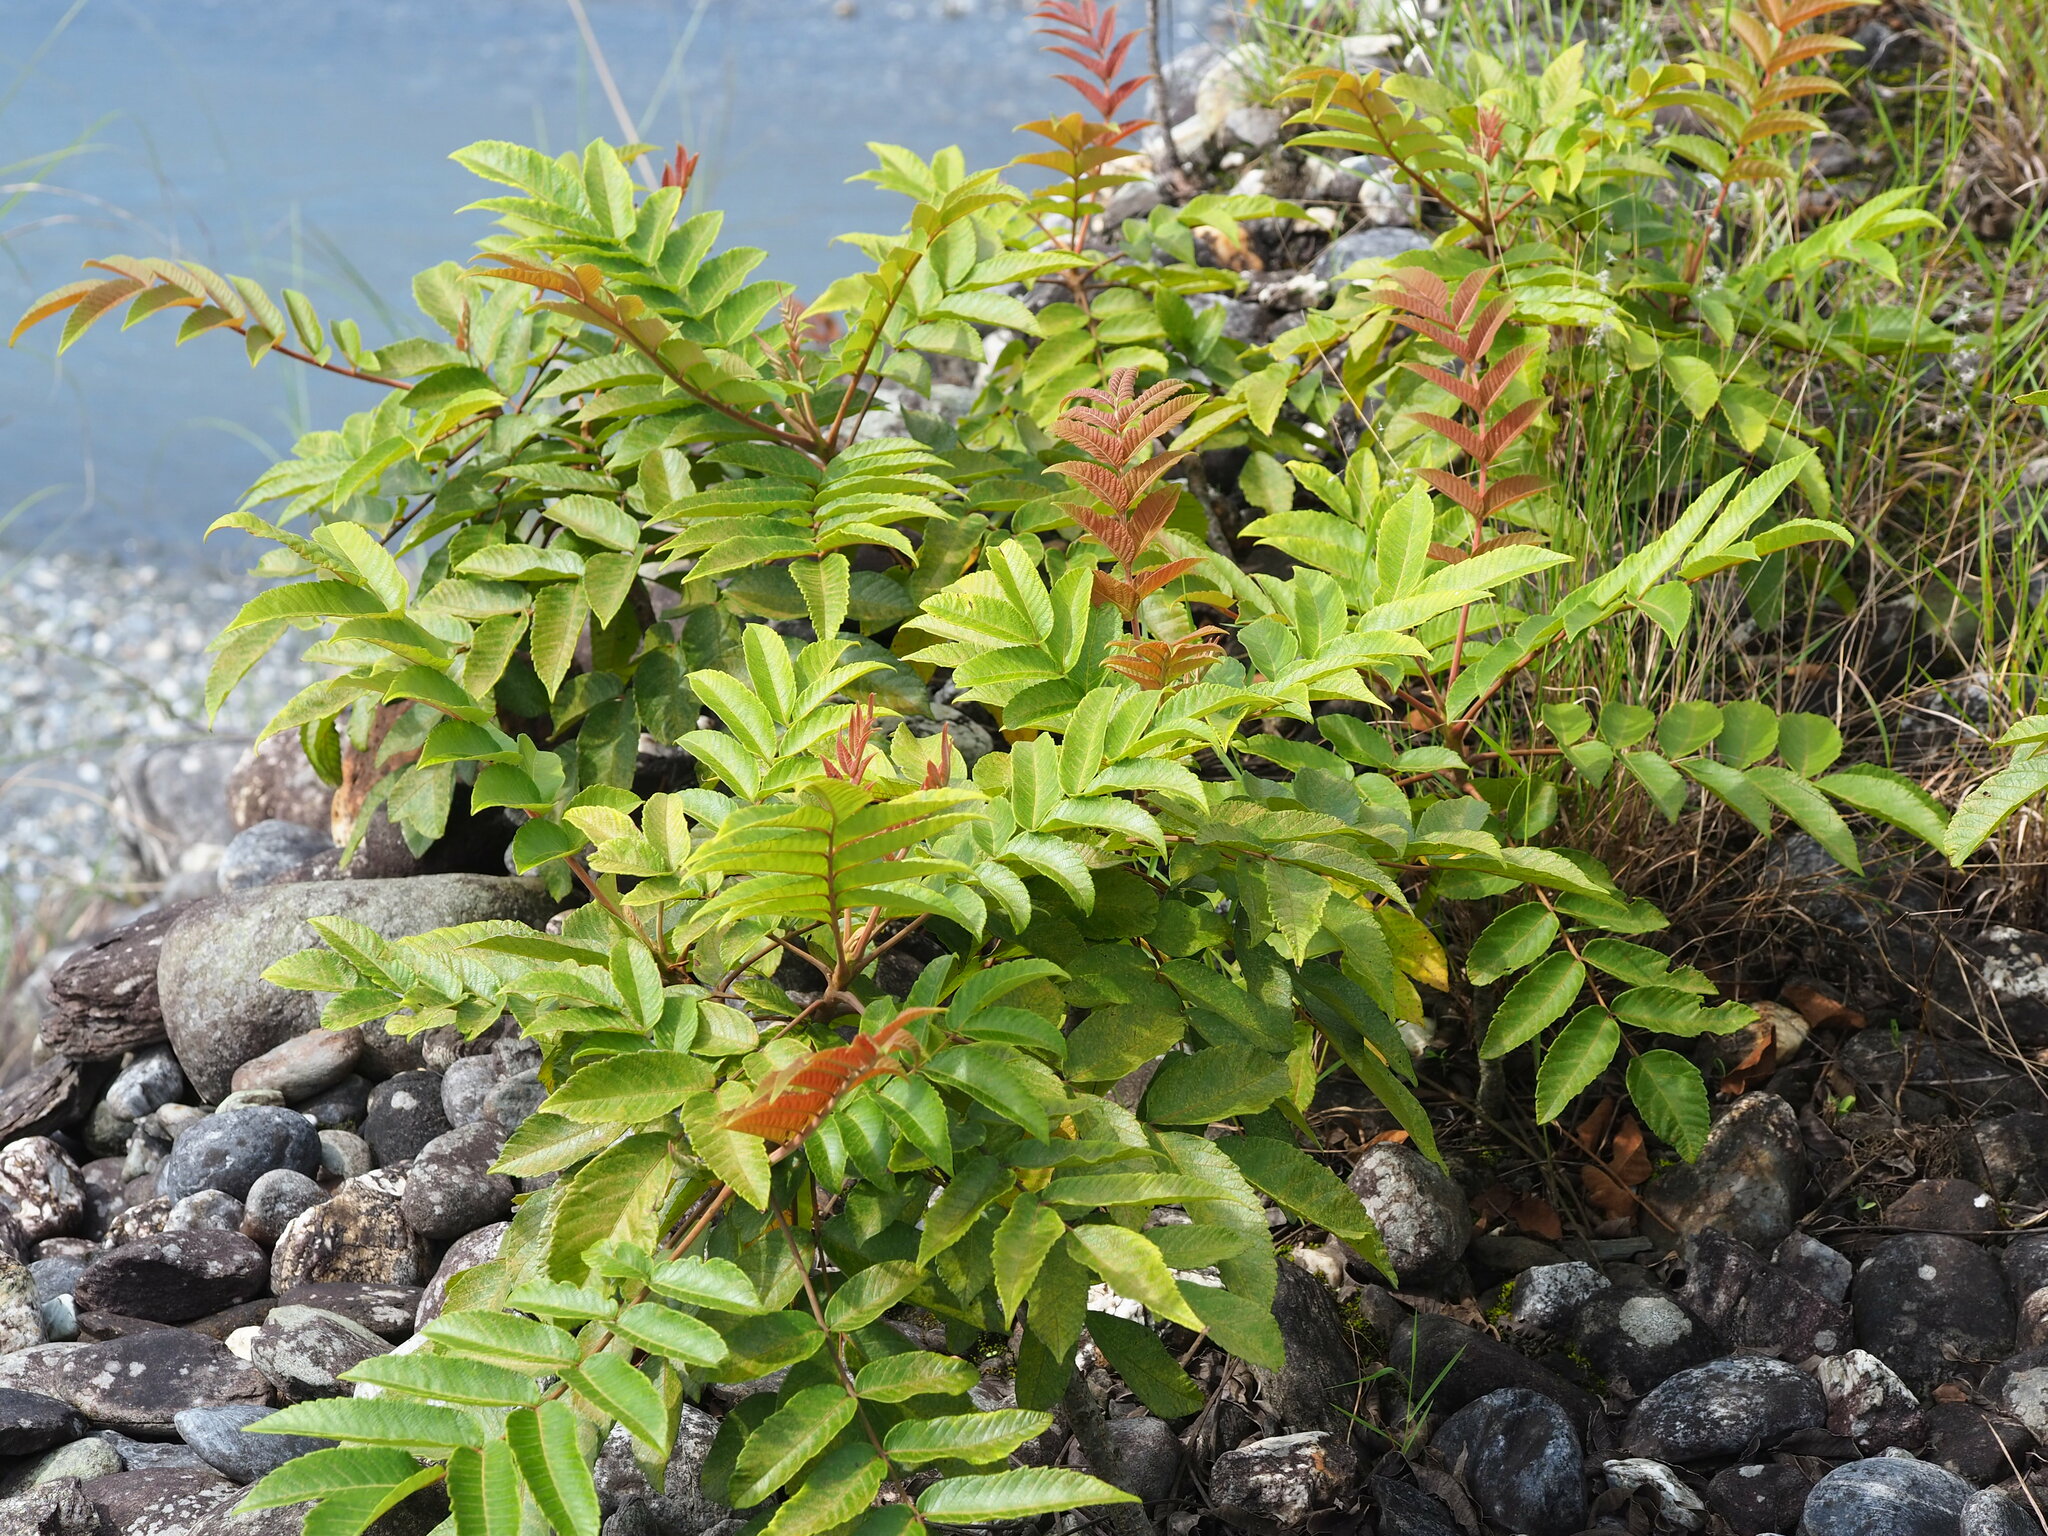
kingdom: Plantae
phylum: Tracheophyta
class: Magnoliopsida
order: Sapindales
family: Anacardiaceae
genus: Rhus
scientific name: Rhus chinensis
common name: Chinese gall
